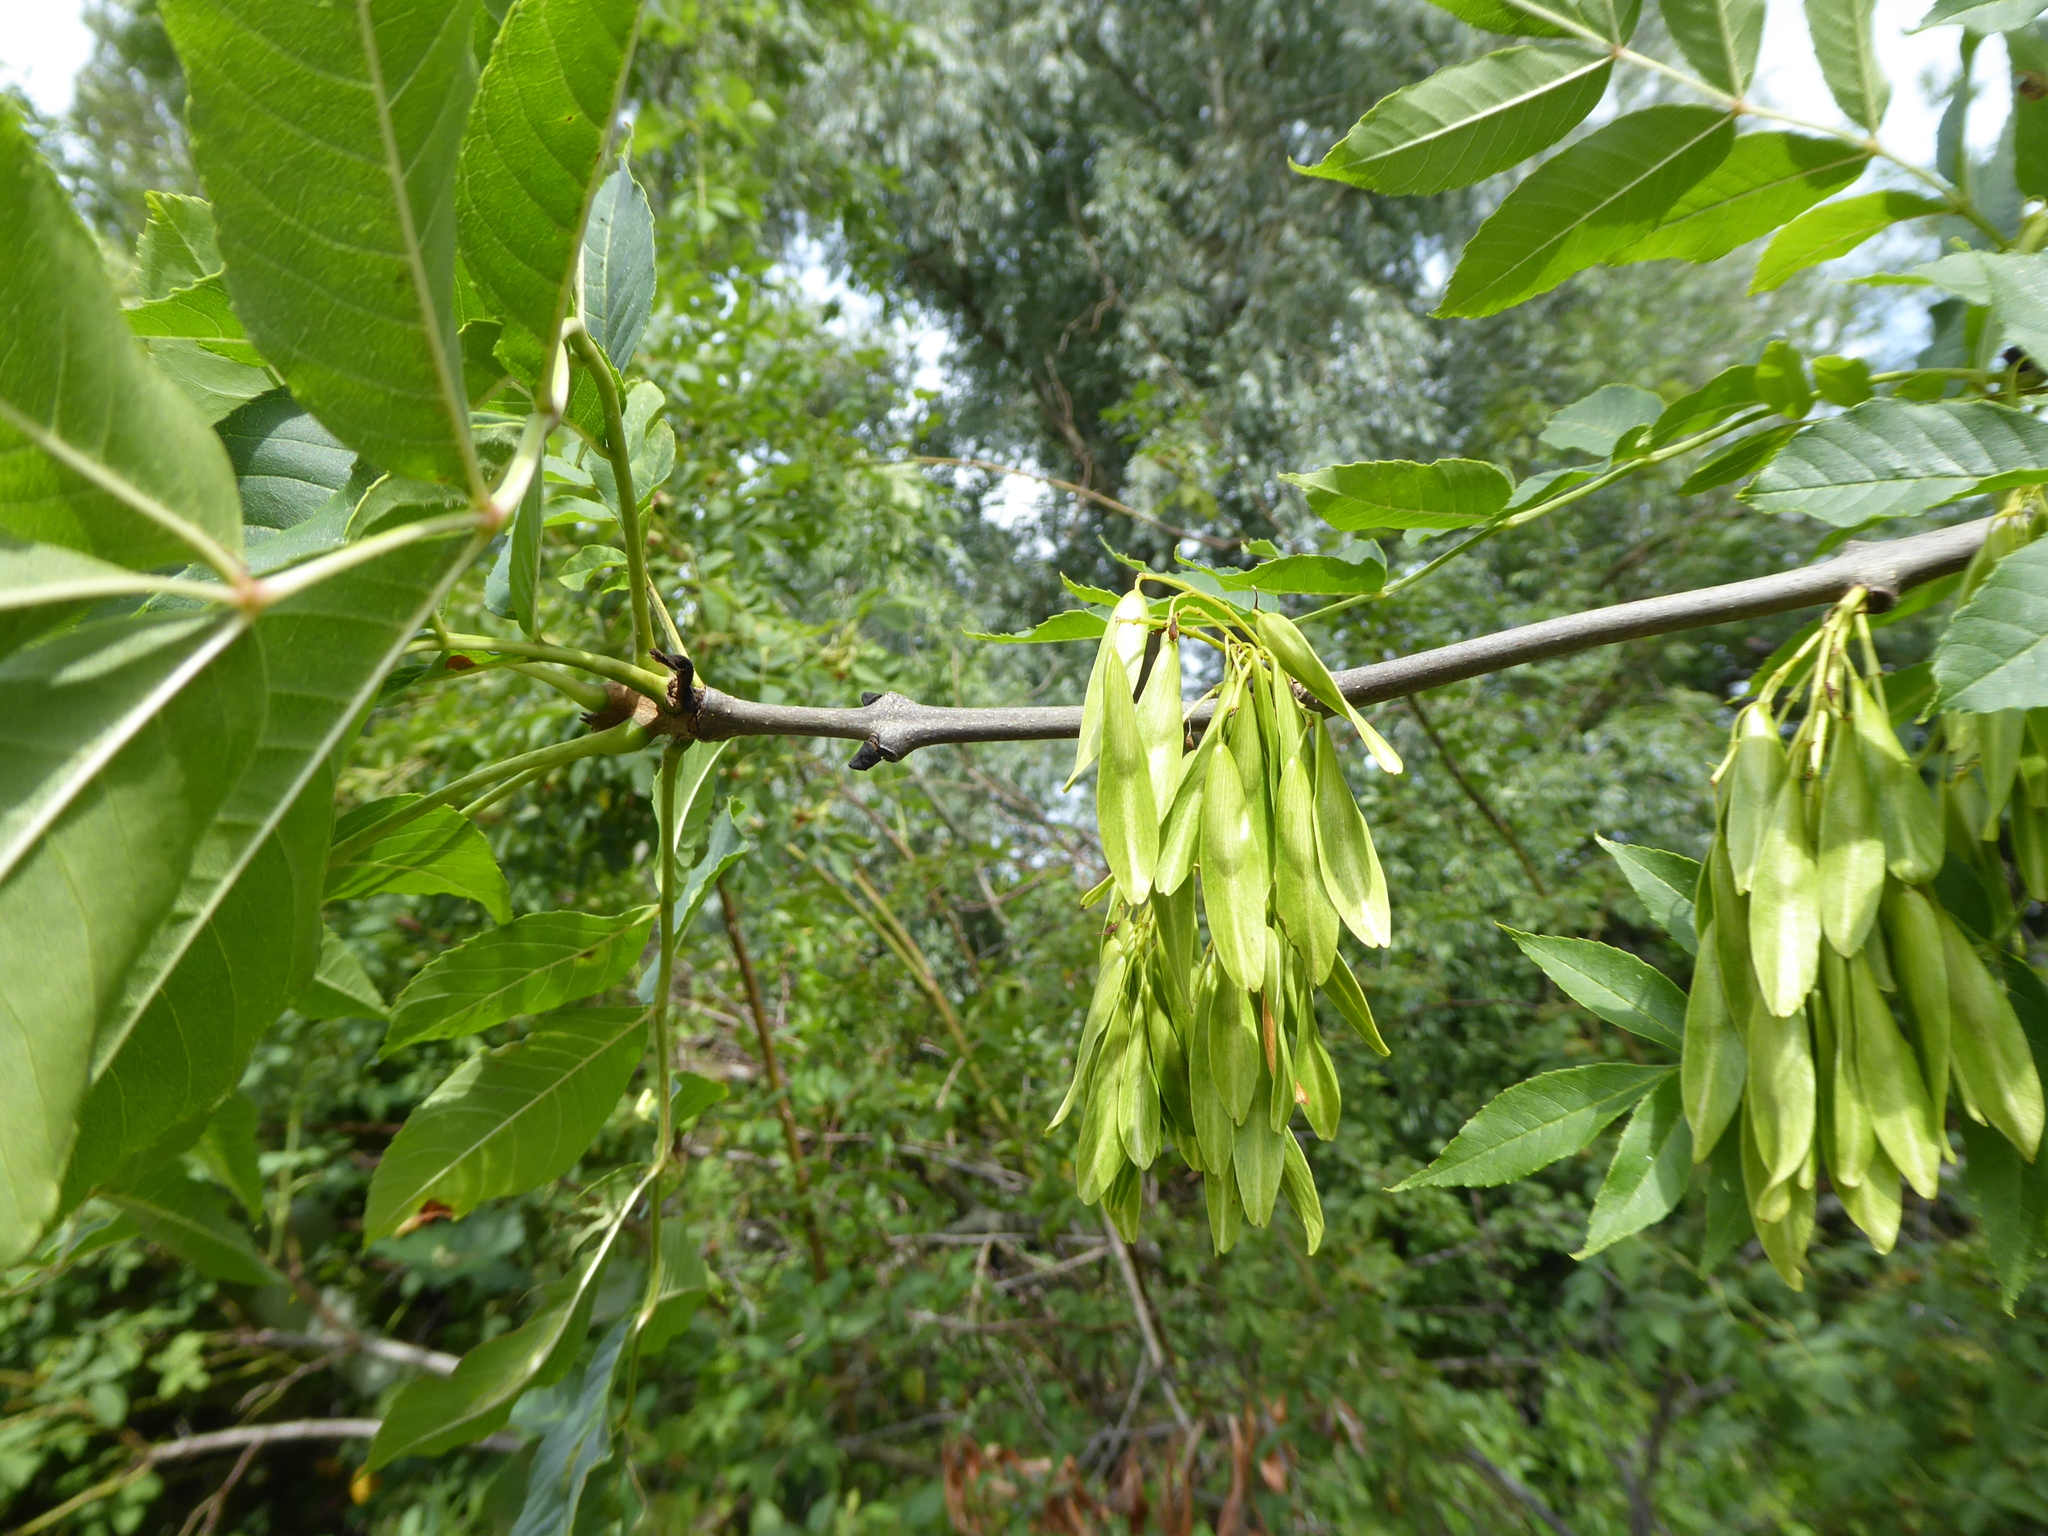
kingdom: Plantae
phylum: Tracheophyta
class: Magnoliopsida
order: Lamiales
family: Oleaceae
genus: Fraxinus
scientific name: Fraxinus excelsior
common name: European ash
